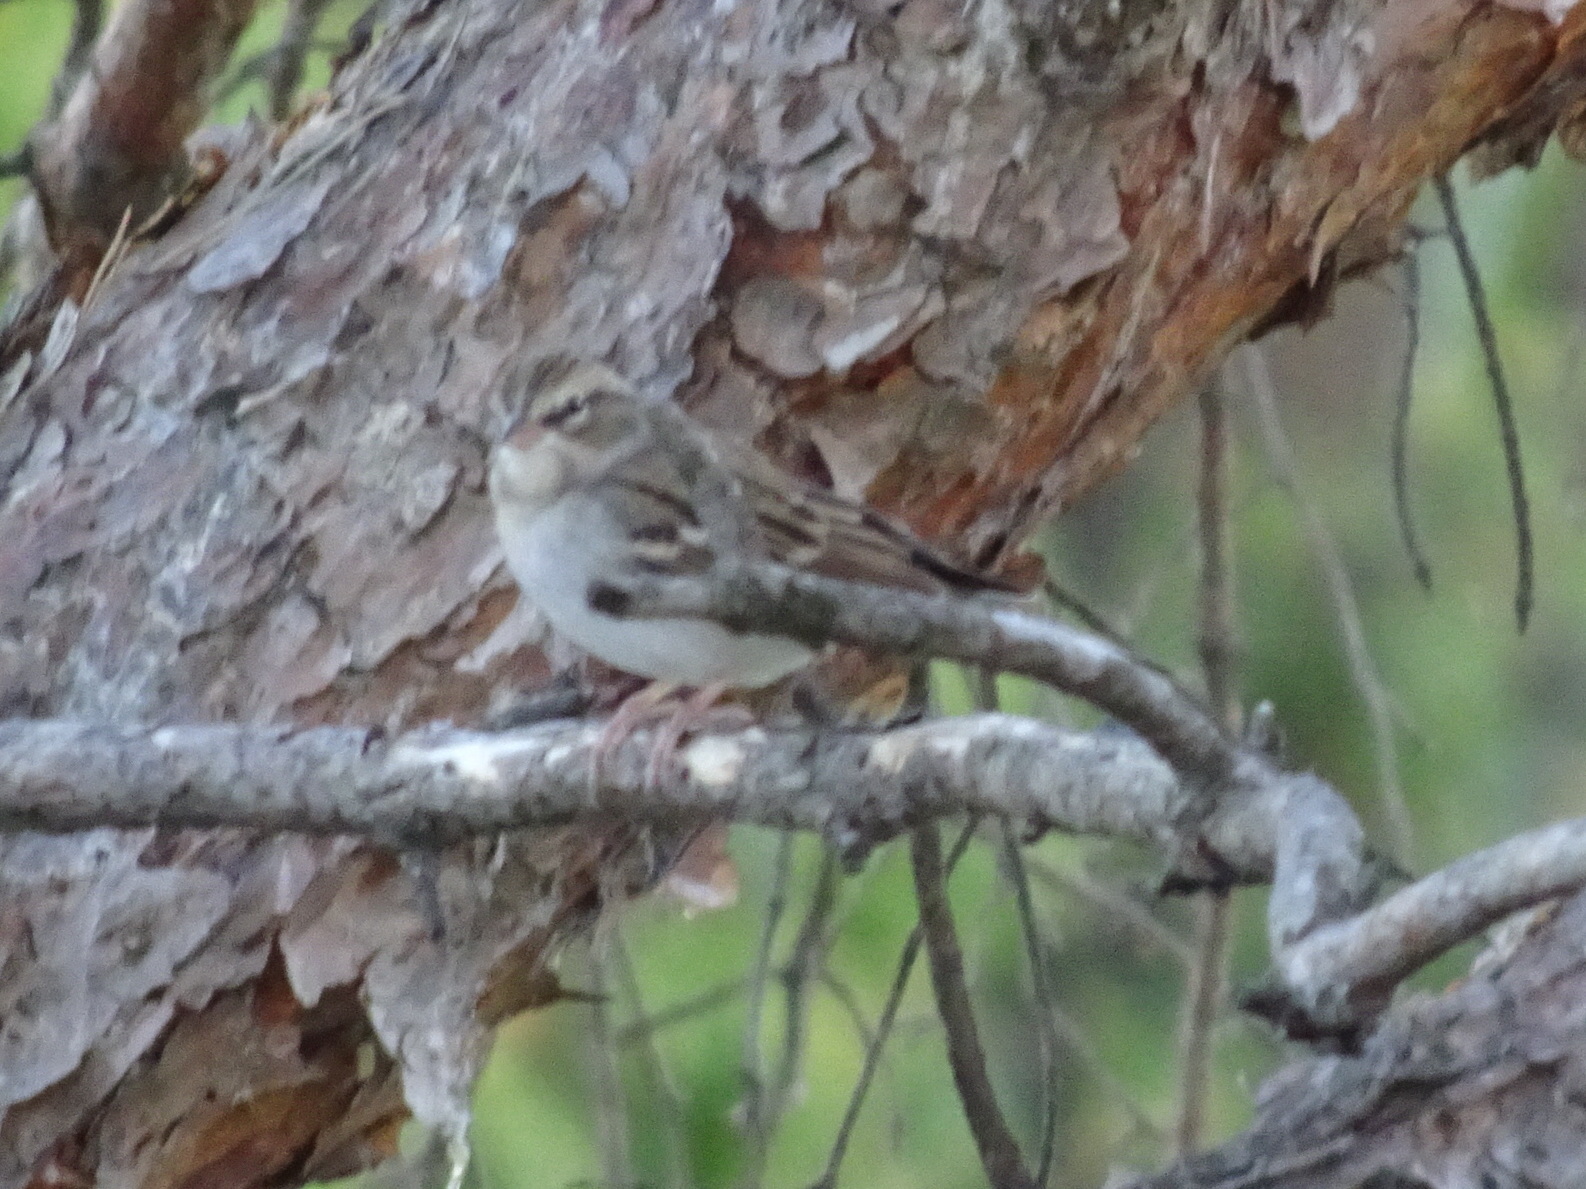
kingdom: Animalia
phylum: Chordata
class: Aves
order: Passeriformes
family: Passerellidae
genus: Spizella
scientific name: Spizella passerina
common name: Chipping sparrow
